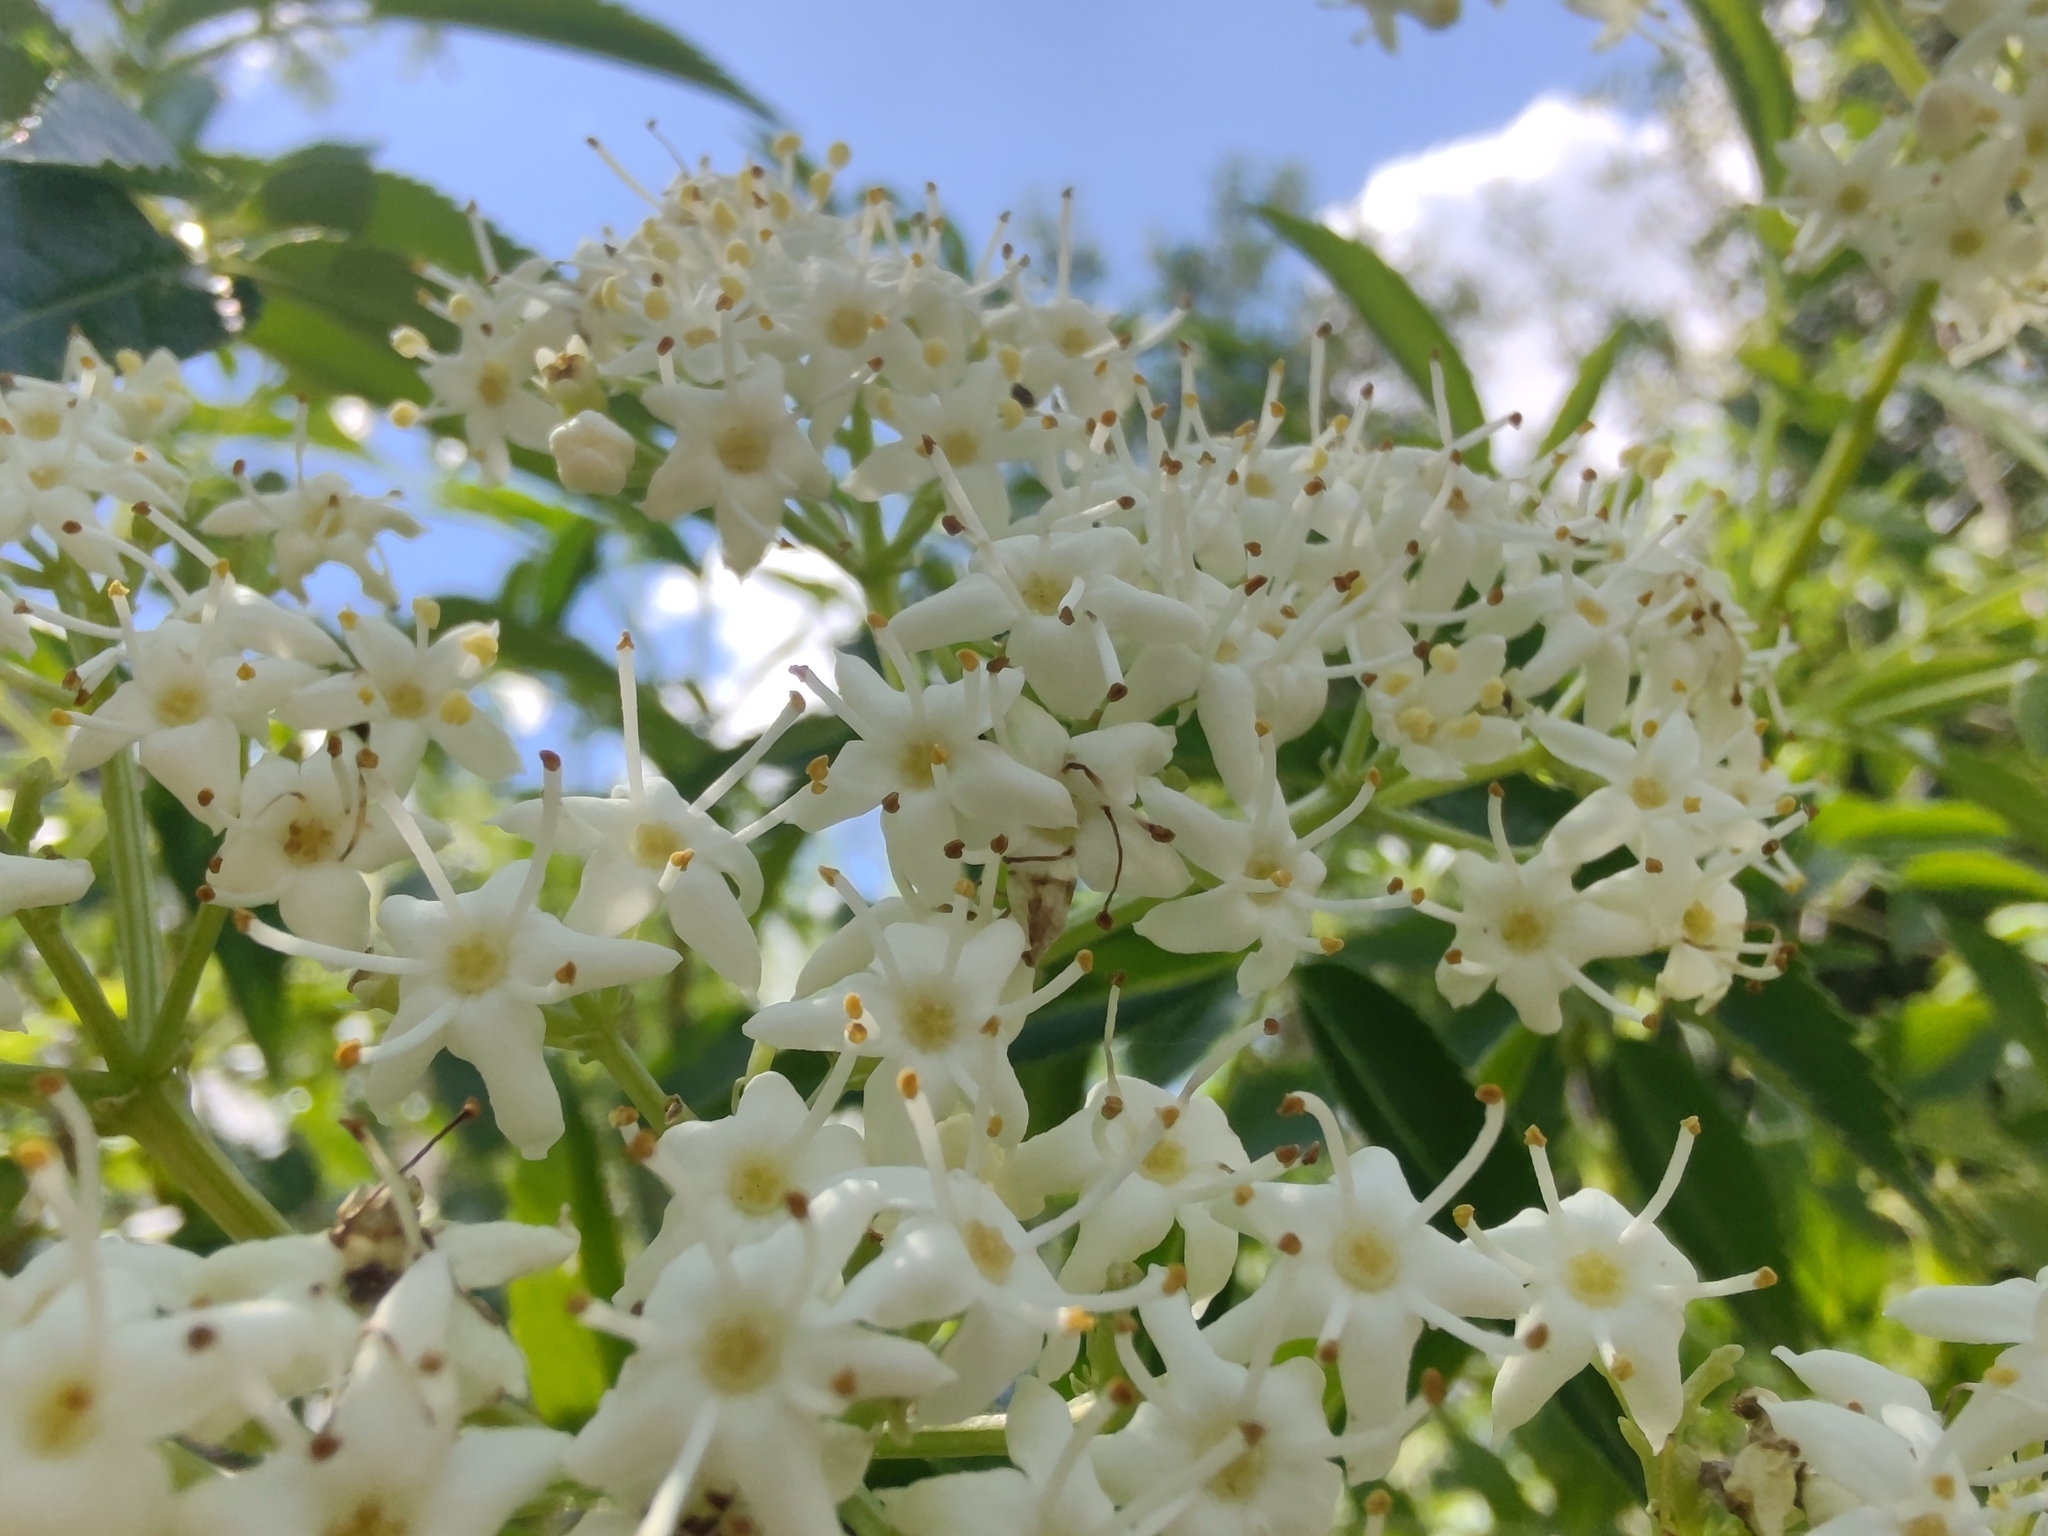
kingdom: Plantae
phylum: Tracheophyta
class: Magnoliopsida
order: Dipsacales
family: Viburnaceae
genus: Sambucus
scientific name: Sambucus australis
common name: Southern elder
